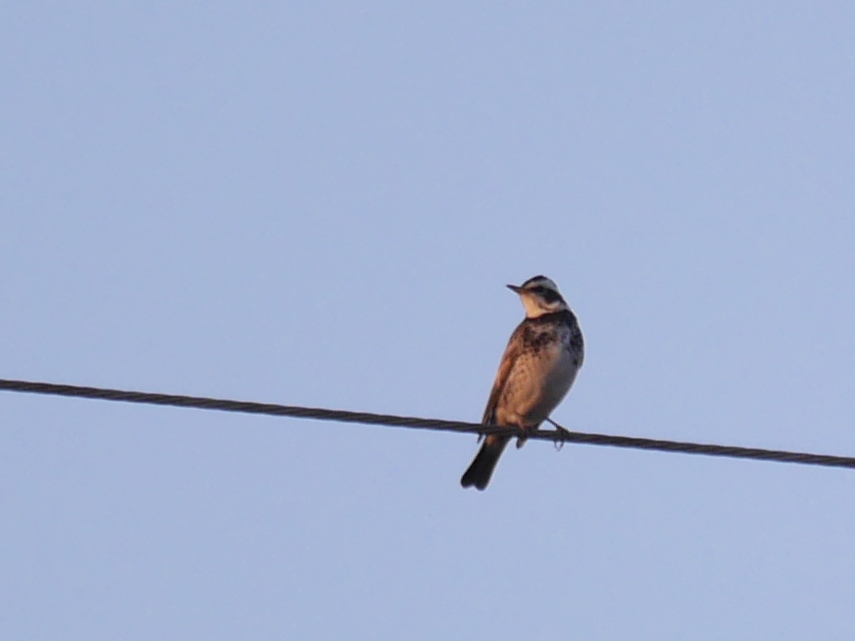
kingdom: Animalia
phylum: Chordata
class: Aves
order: Passeriformes
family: Turdidae
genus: Turdus
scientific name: Turdus eunomus
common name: Dusky thrush
